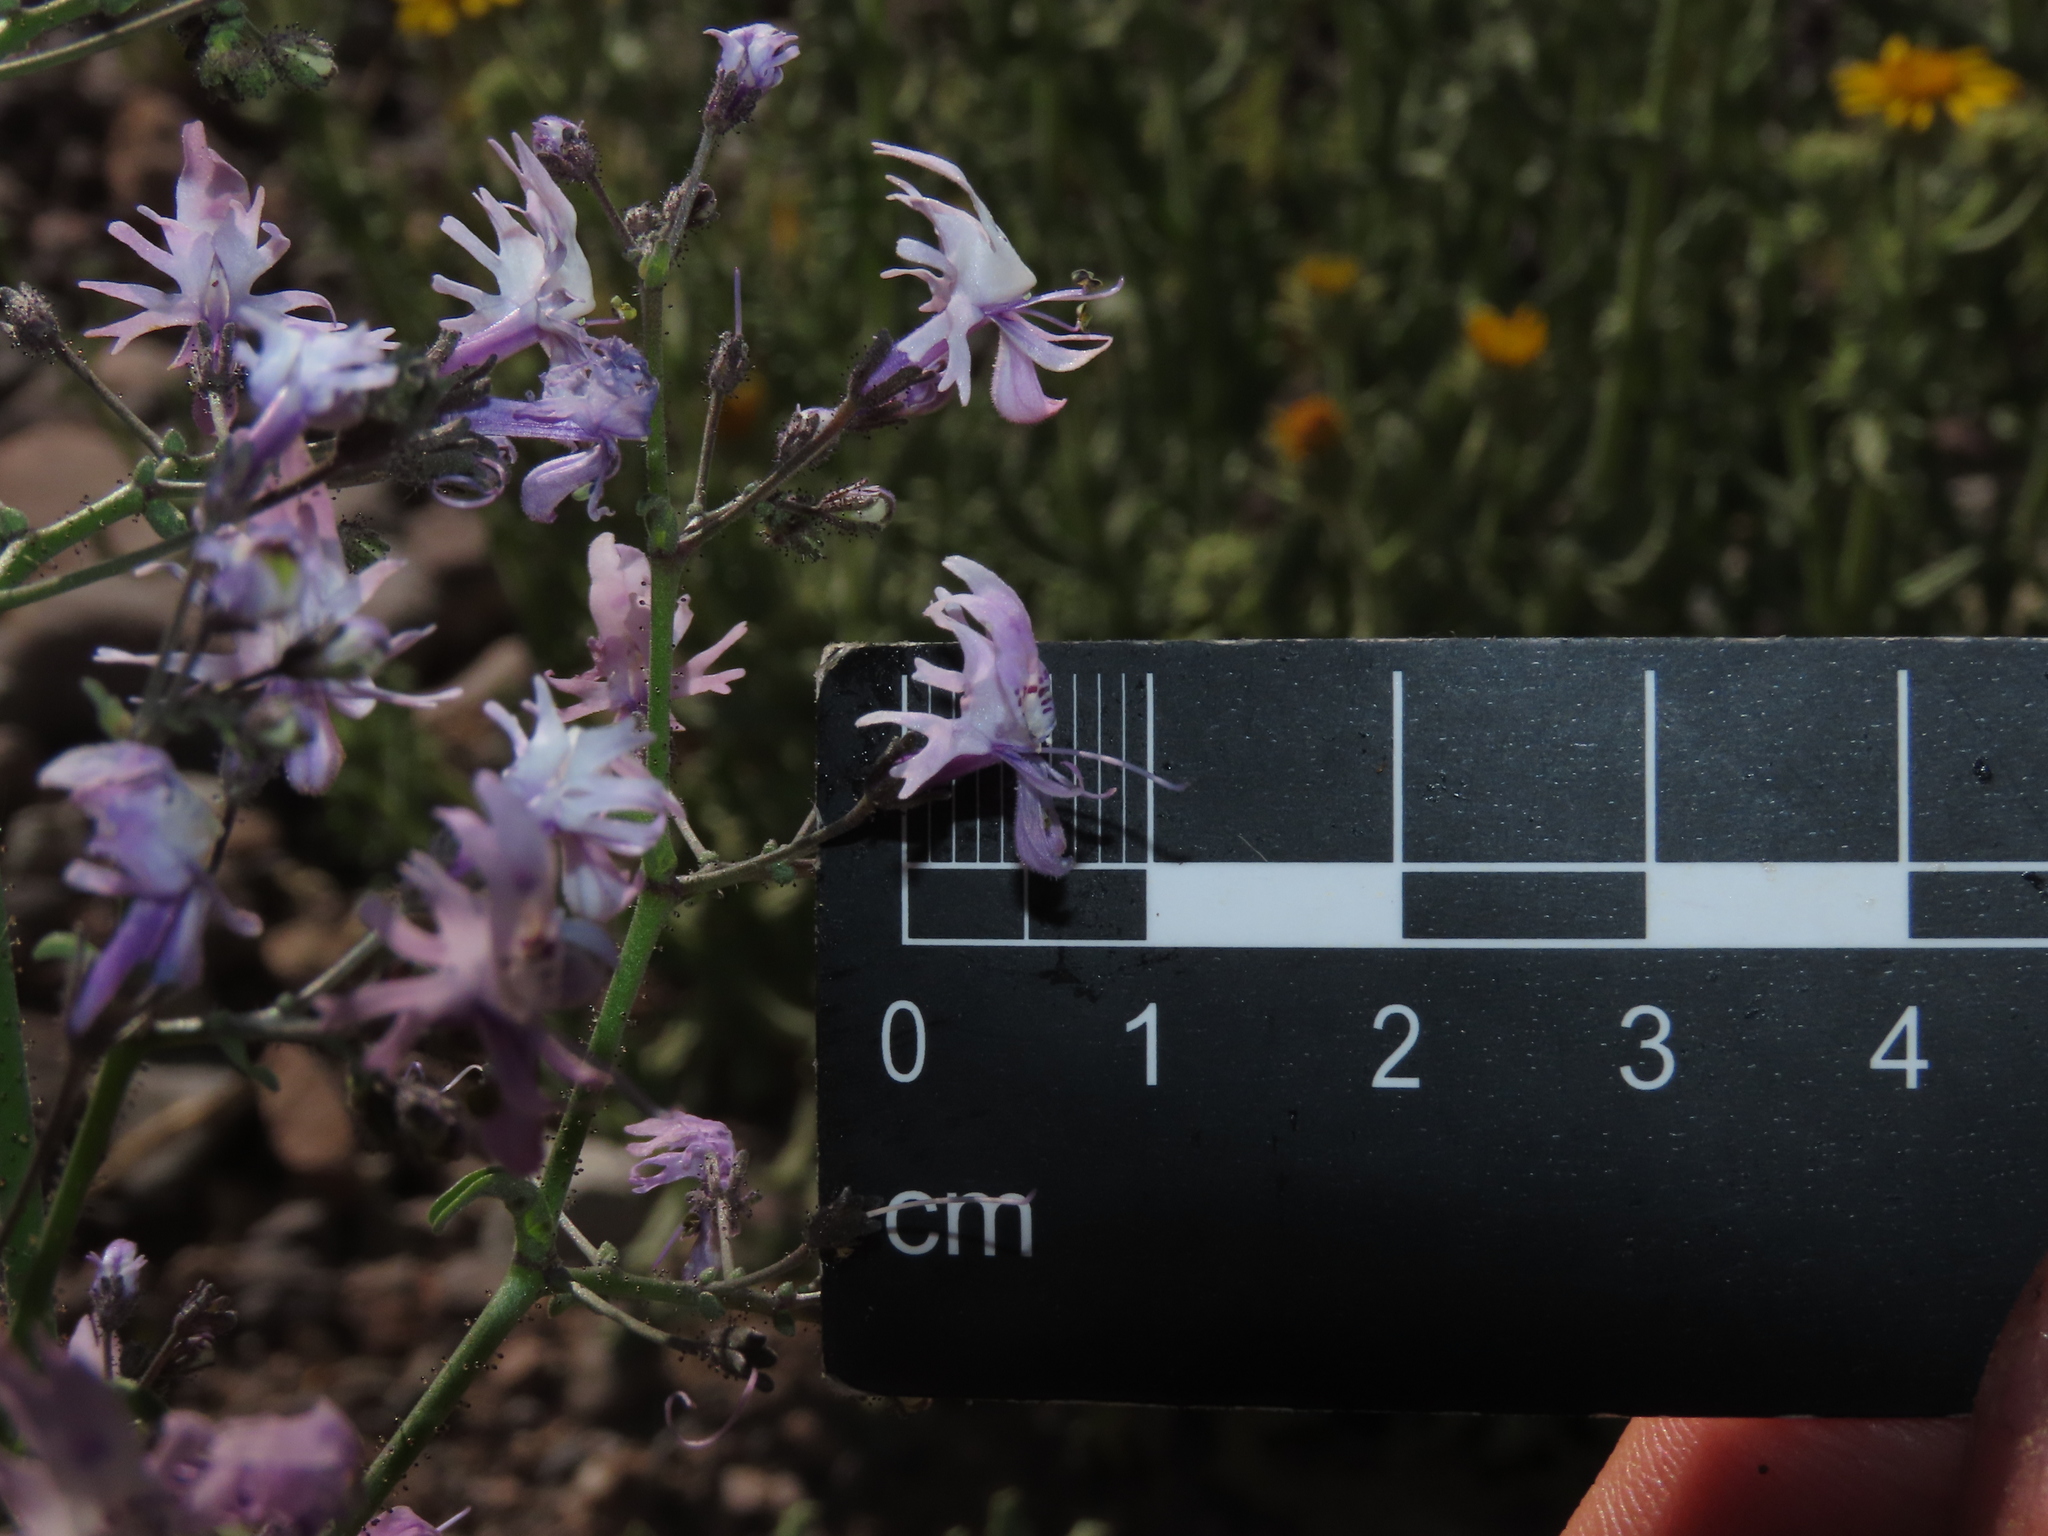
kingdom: Plantae
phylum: Tracheophyta
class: Magnoliopsida
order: Solanales
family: Solanaceae
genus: Schizanthus
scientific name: Schizanthus alpestris
